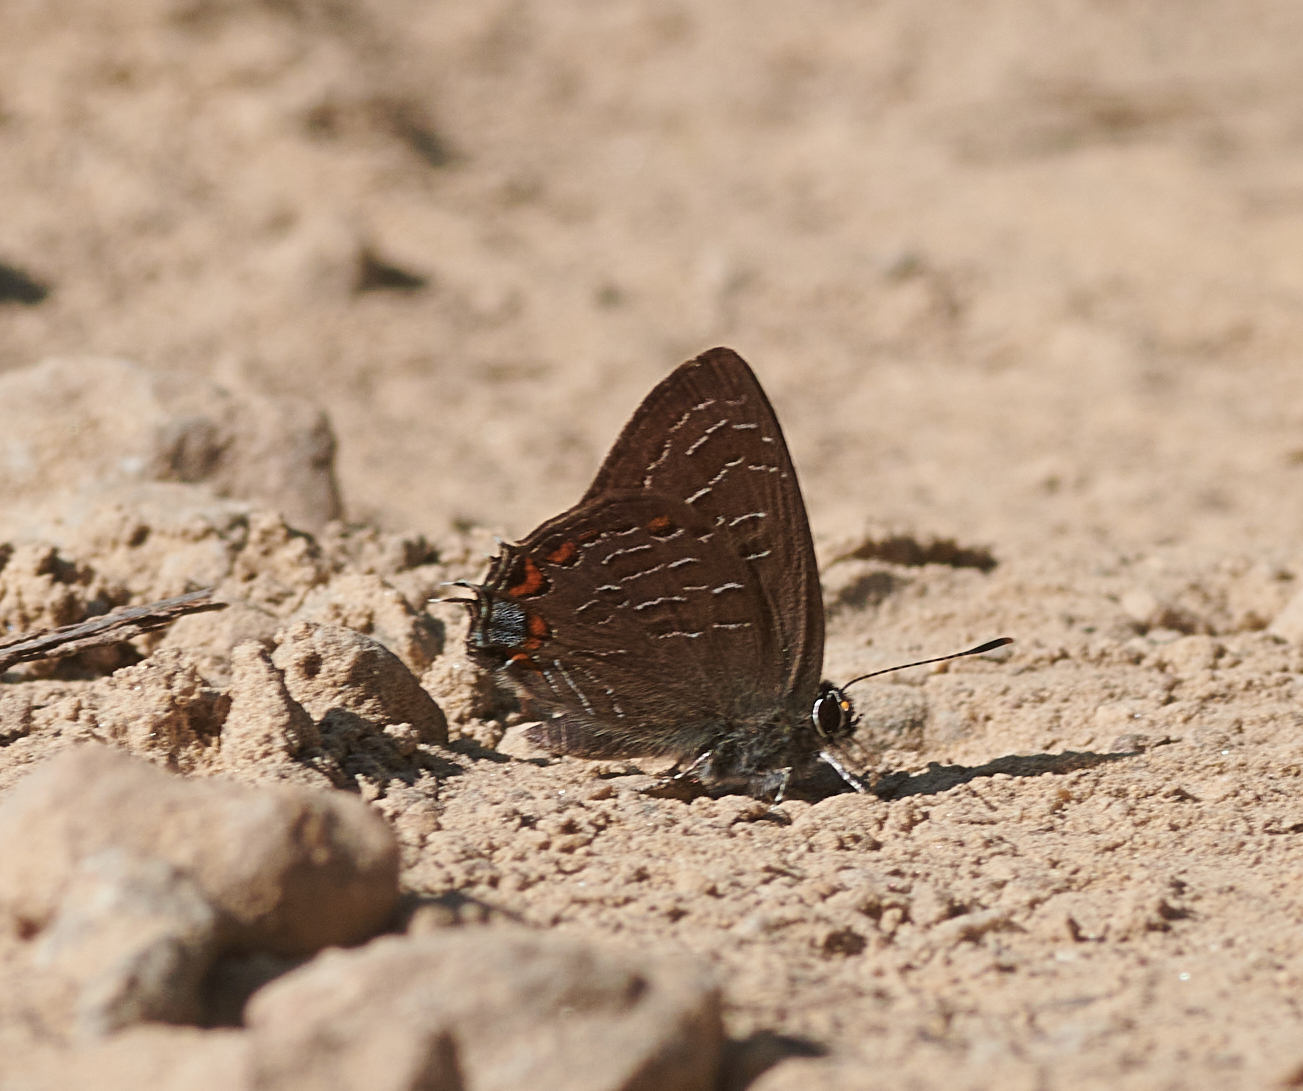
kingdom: Animalia
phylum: Arthropoda
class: Insecta
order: Lepidoptera
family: Lycaenidae
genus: Satyrium
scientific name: Satyrium liparops
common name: Striped hairstreak
